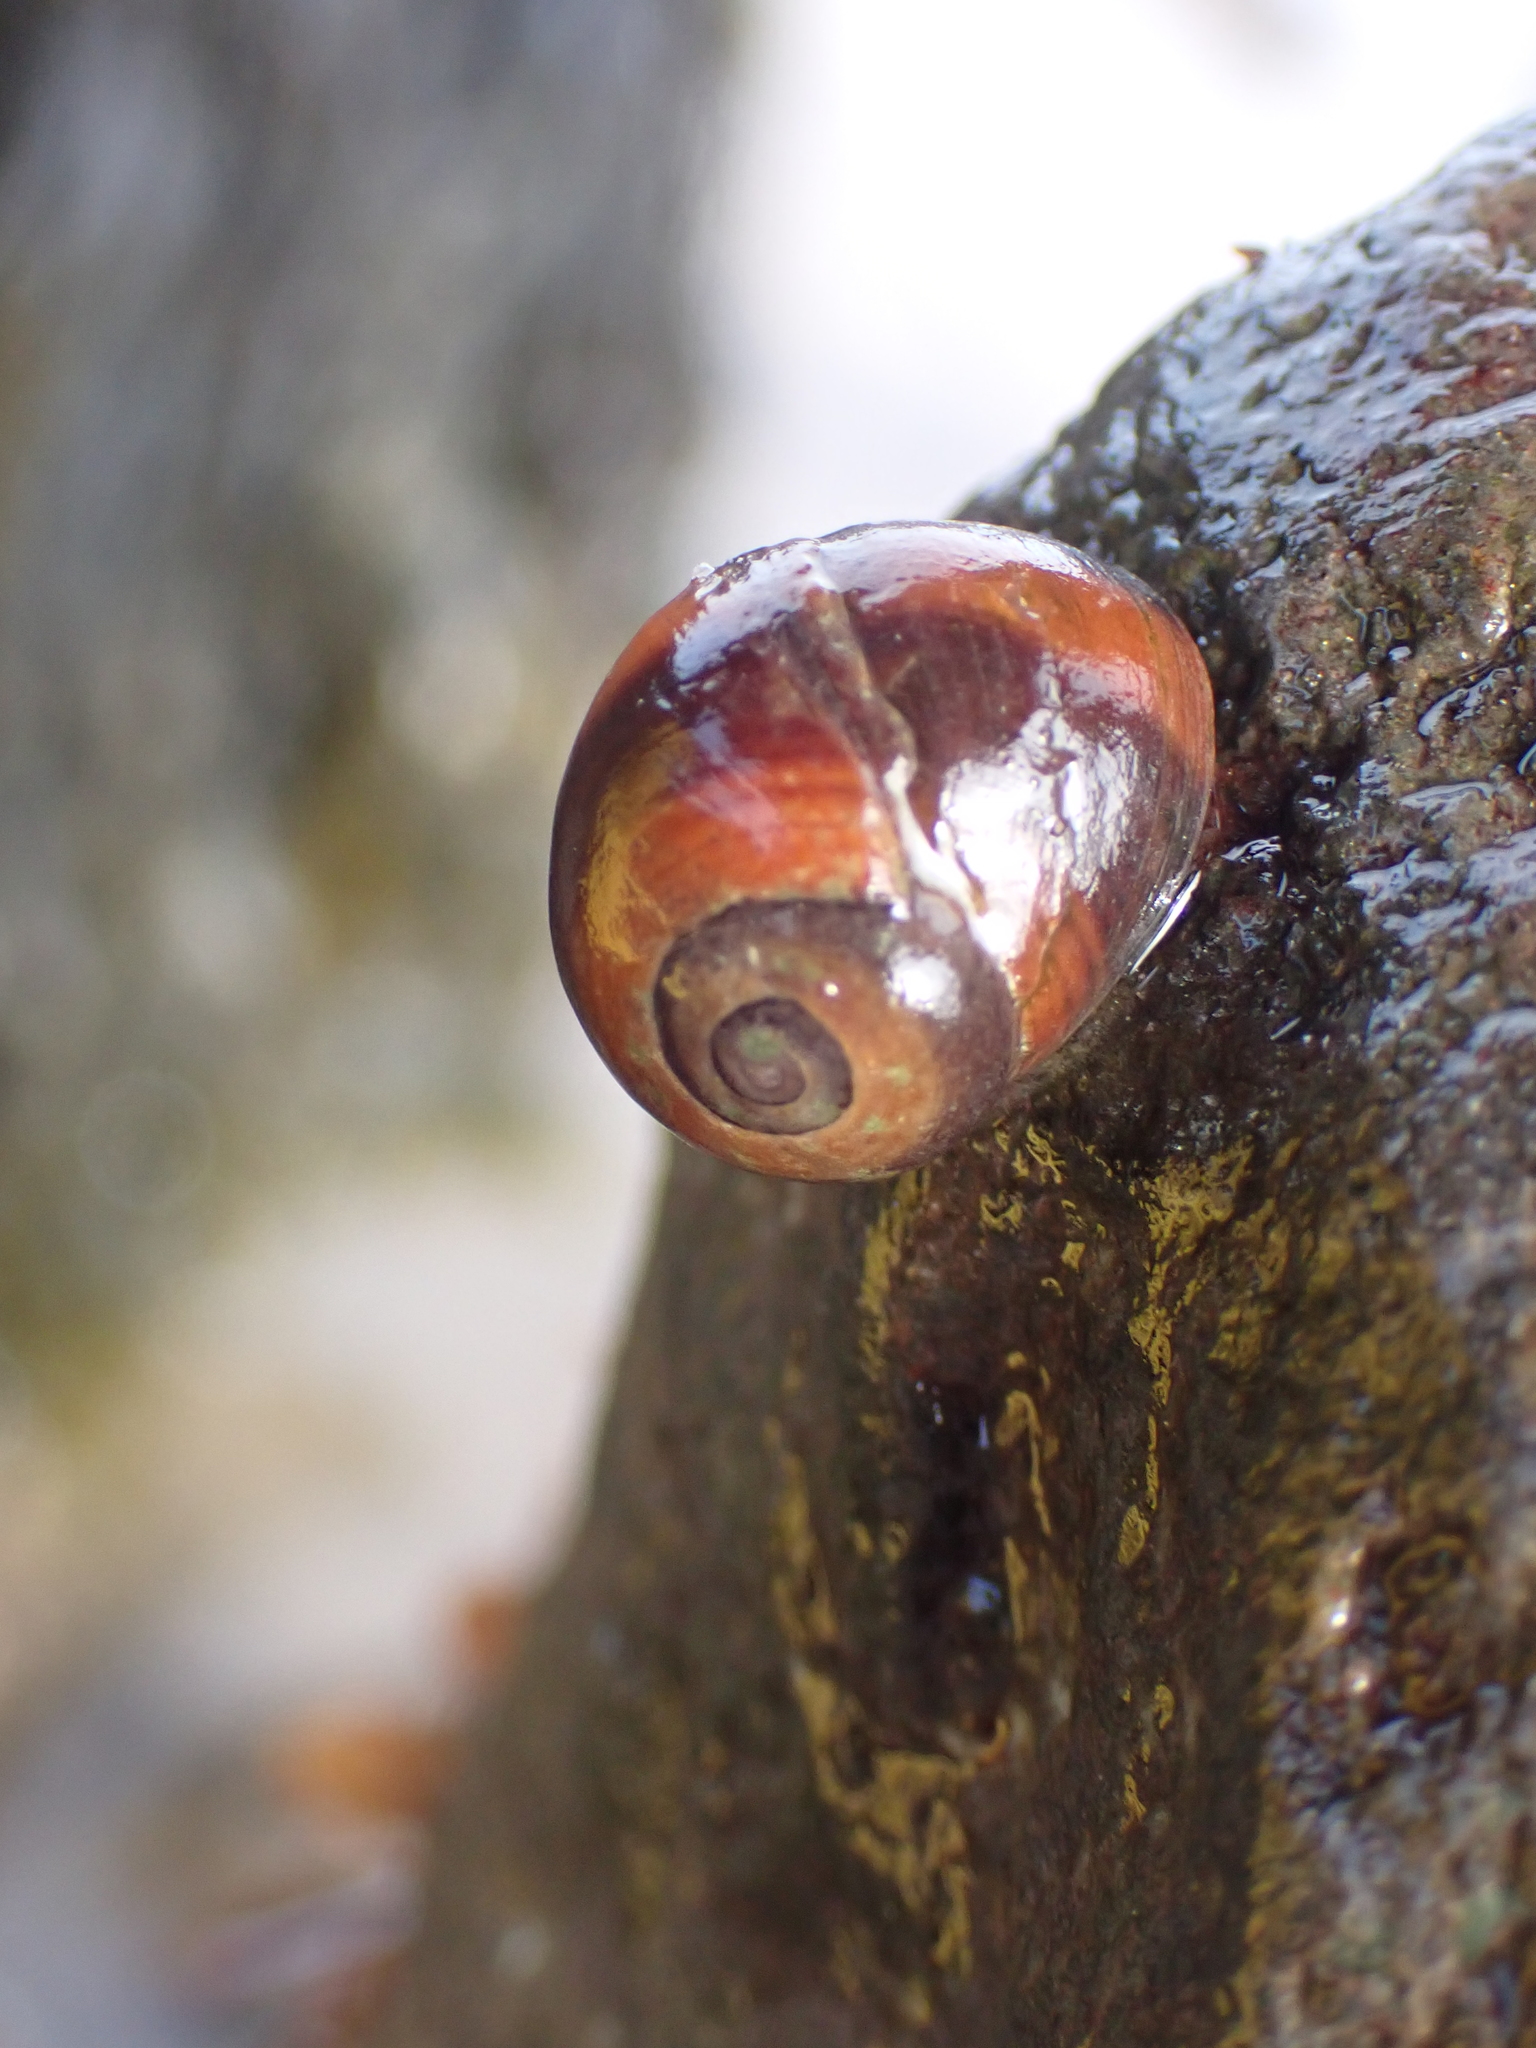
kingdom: Animalia
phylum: Mollusca
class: Gastropoda
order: Littorinimorpha
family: Littorinidae
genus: Littorina
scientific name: Littorina obtusata
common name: Flat periwinkle
